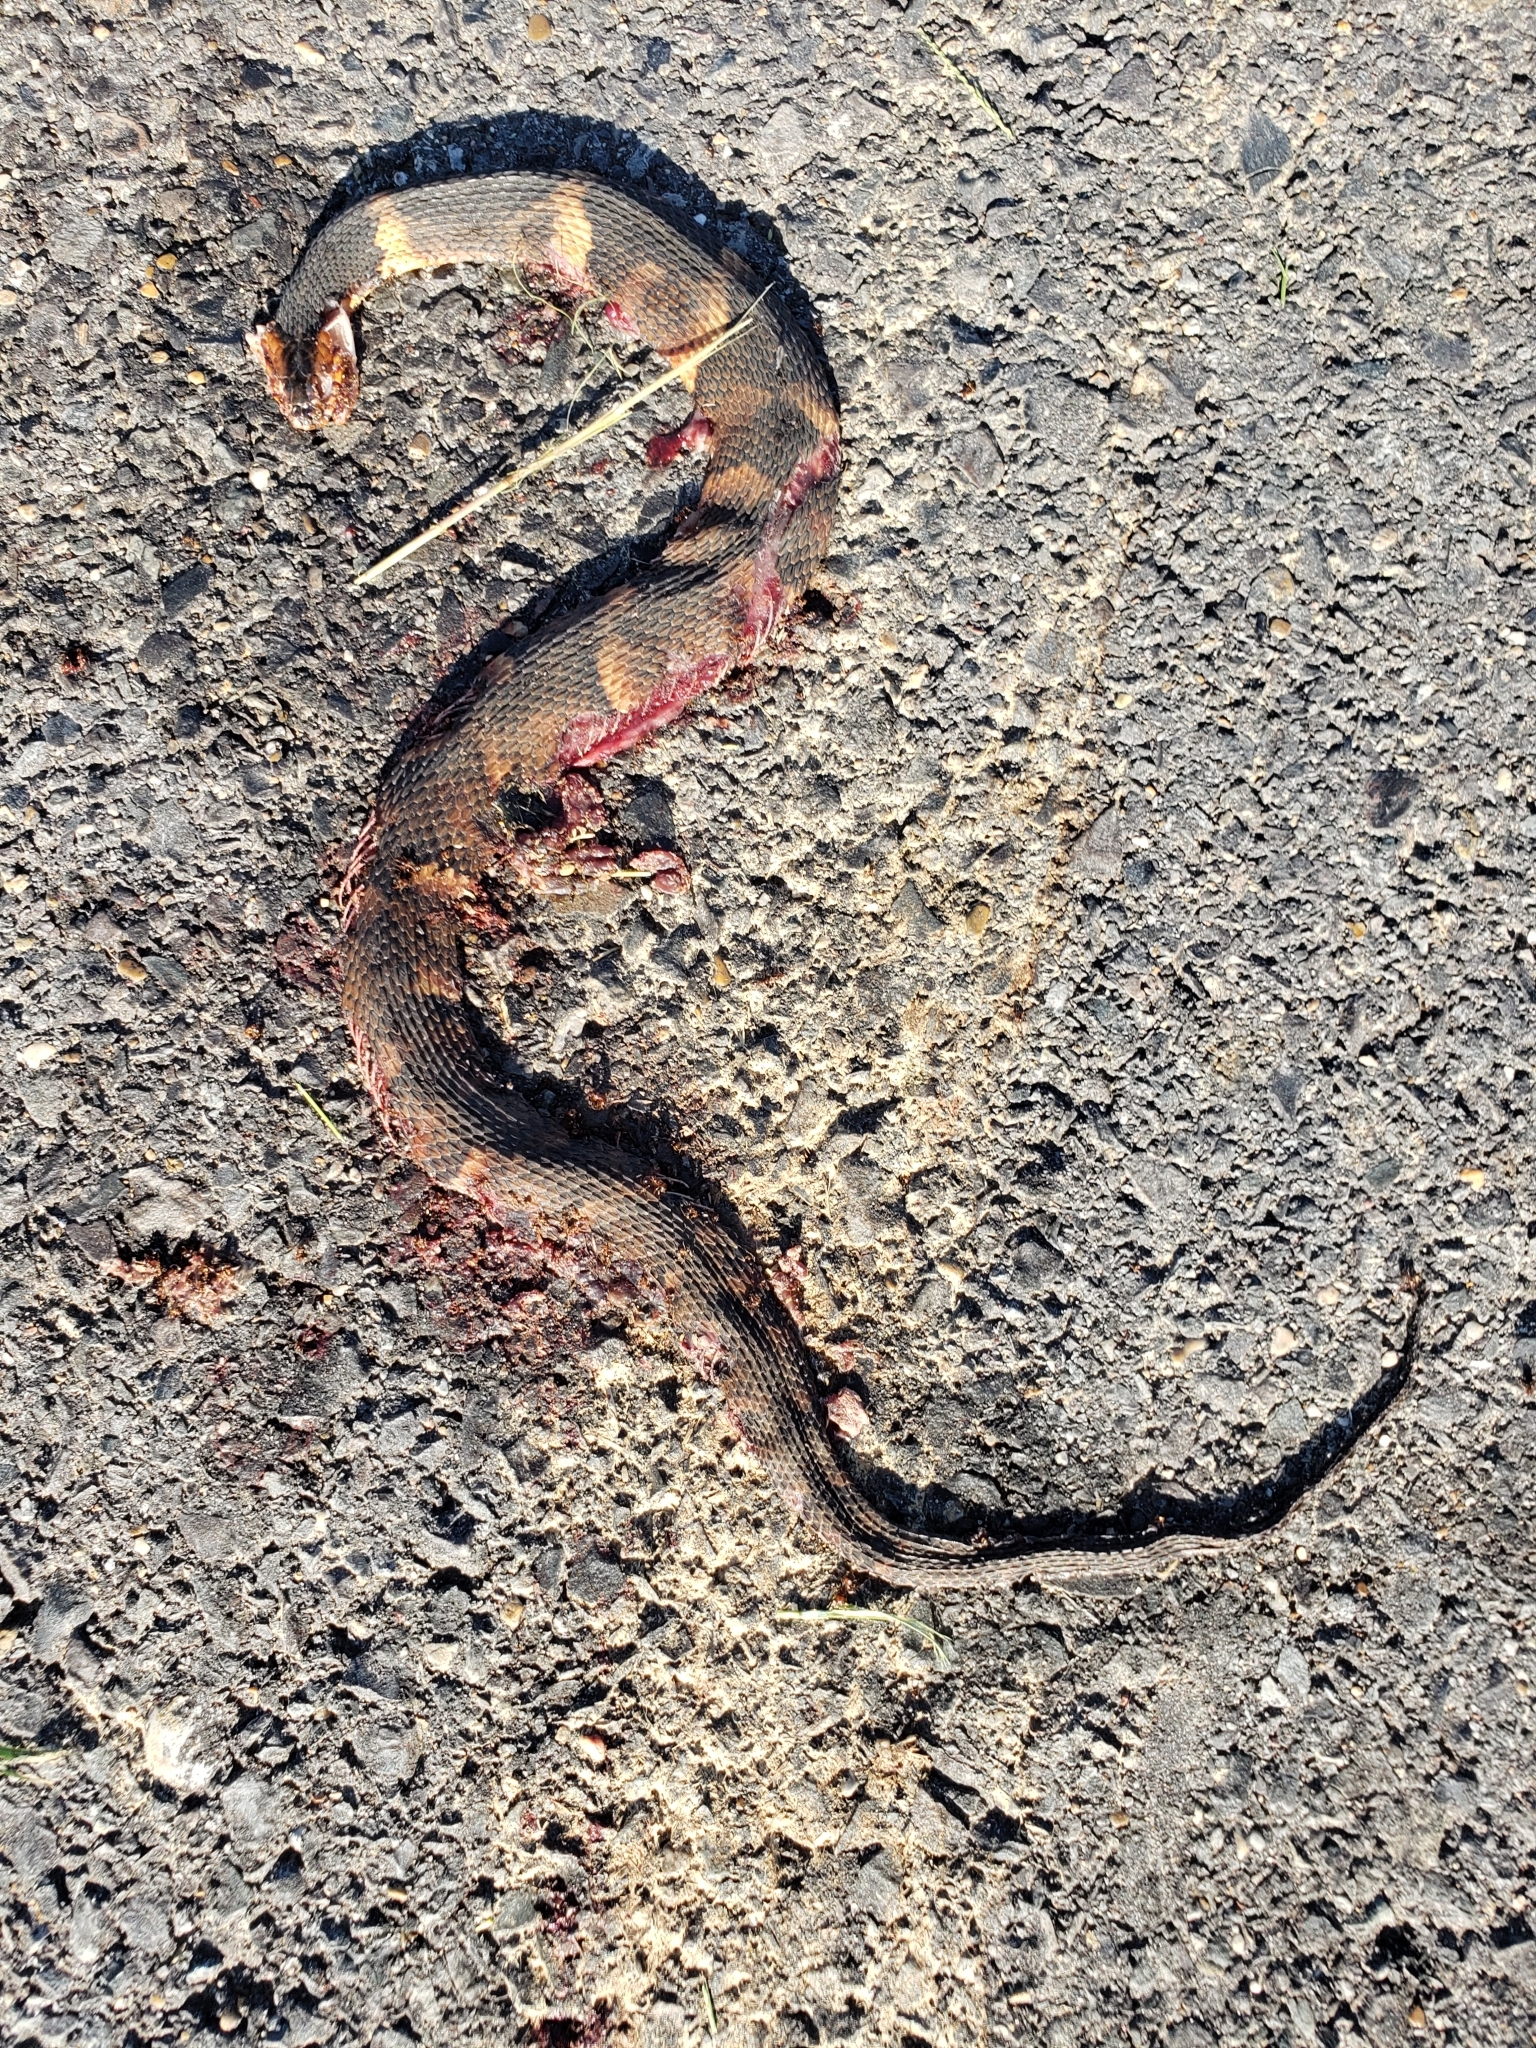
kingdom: Animalia
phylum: Chordata
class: Squamata
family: Colubridae
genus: Nerodia
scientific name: Nerodia fasciata
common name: Southern water snake
